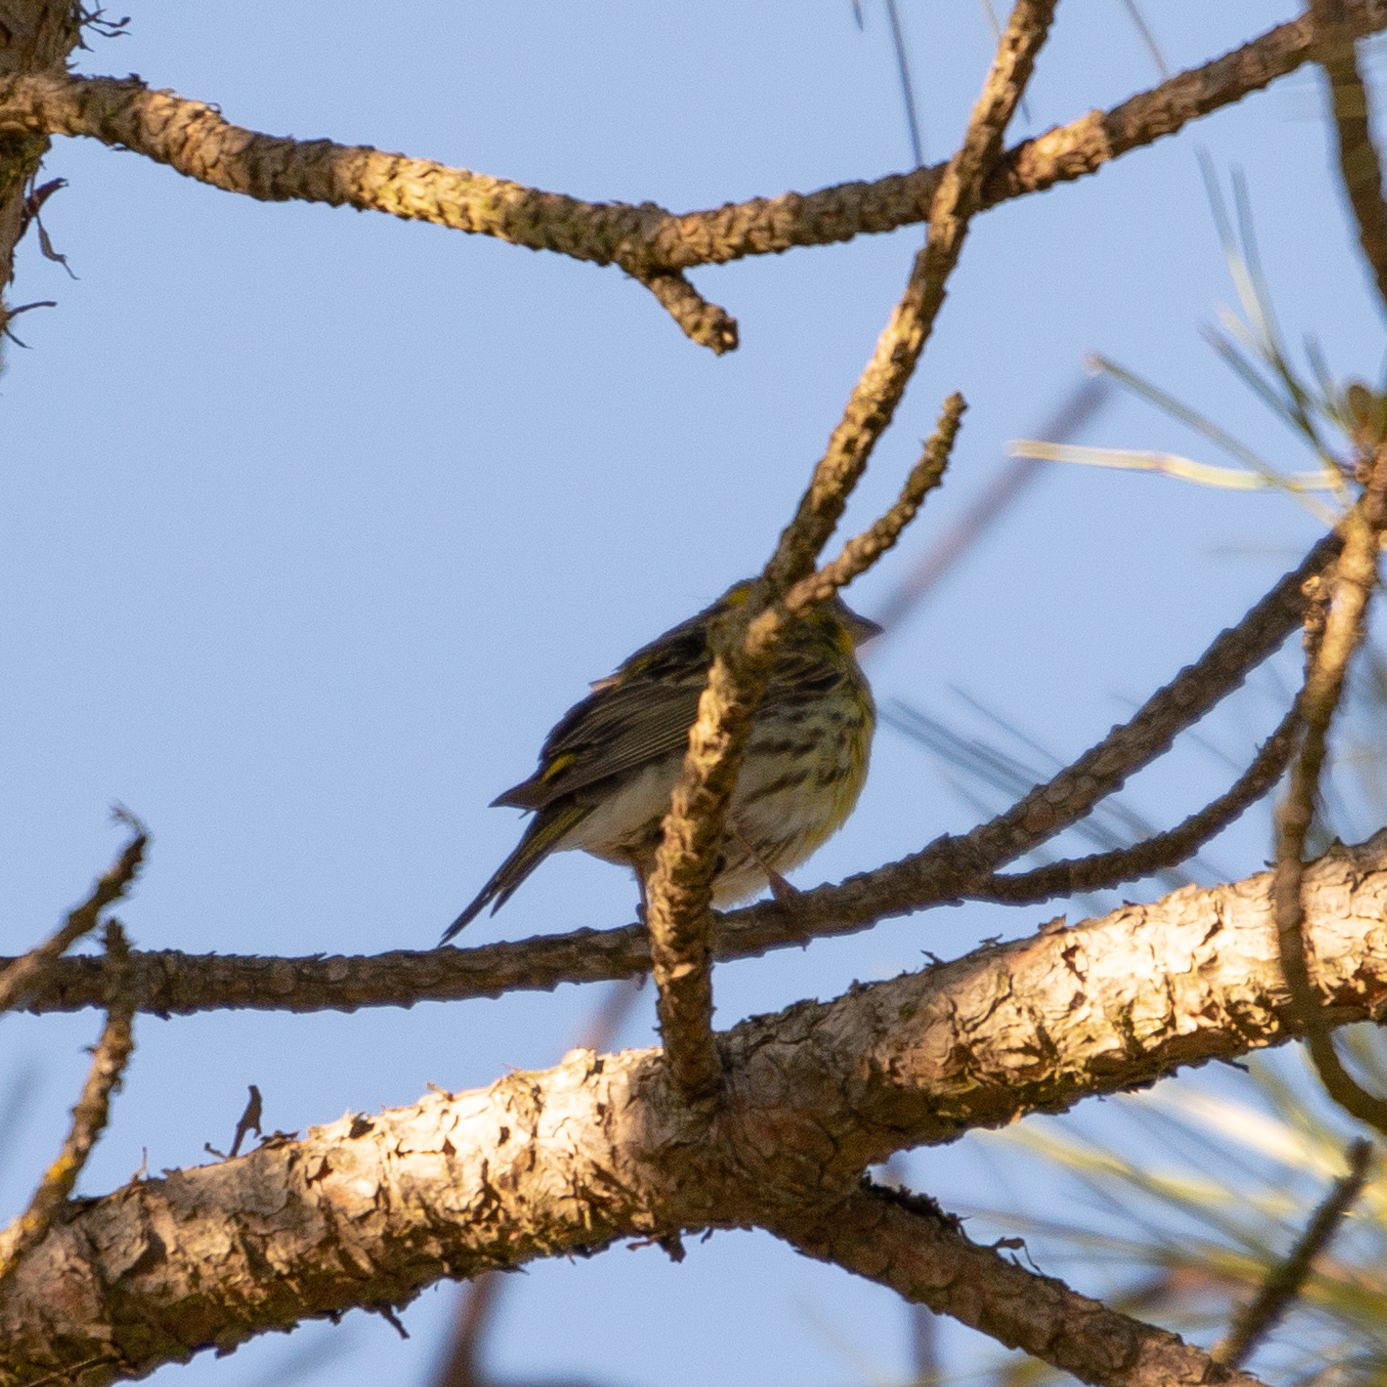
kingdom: Animalia
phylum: Chordata
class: Aves
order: Passeriformes
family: Fringillidae
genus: Serinus
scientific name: Serinus serinus
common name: European serin
